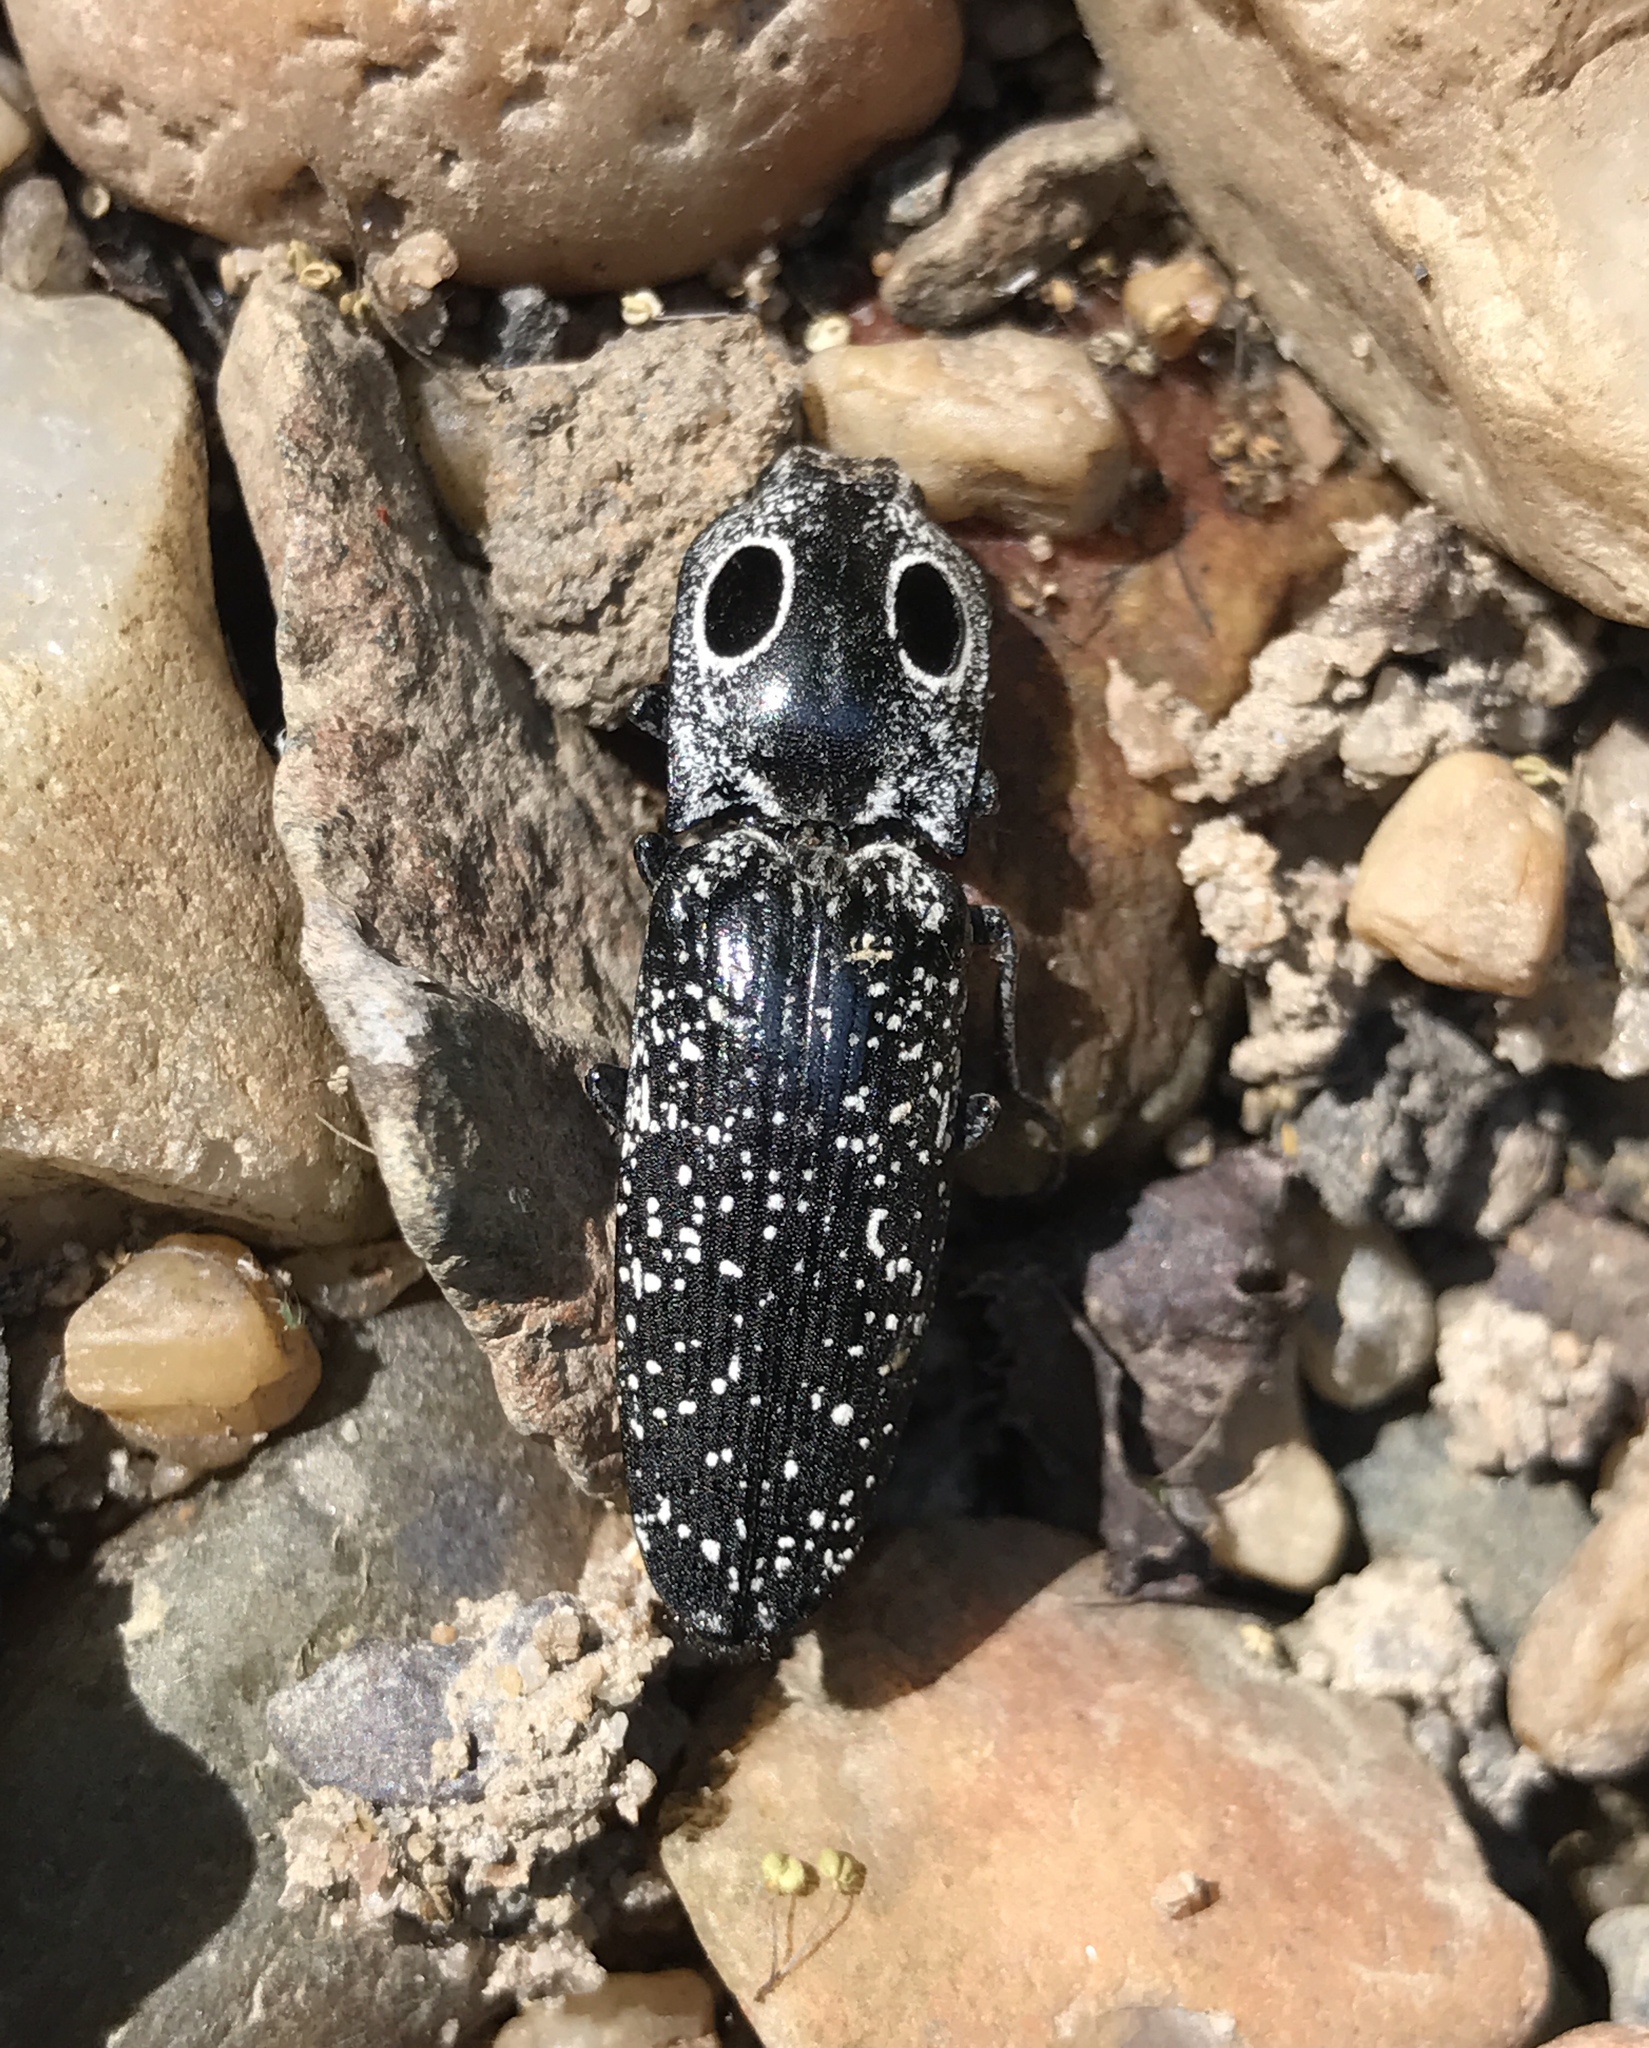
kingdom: Animalia
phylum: Arthropoda
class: Insecta
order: Coleoptera
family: Elateridae
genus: Alaus
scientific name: Alaus oculatus
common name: Eastern eyed click beetle
